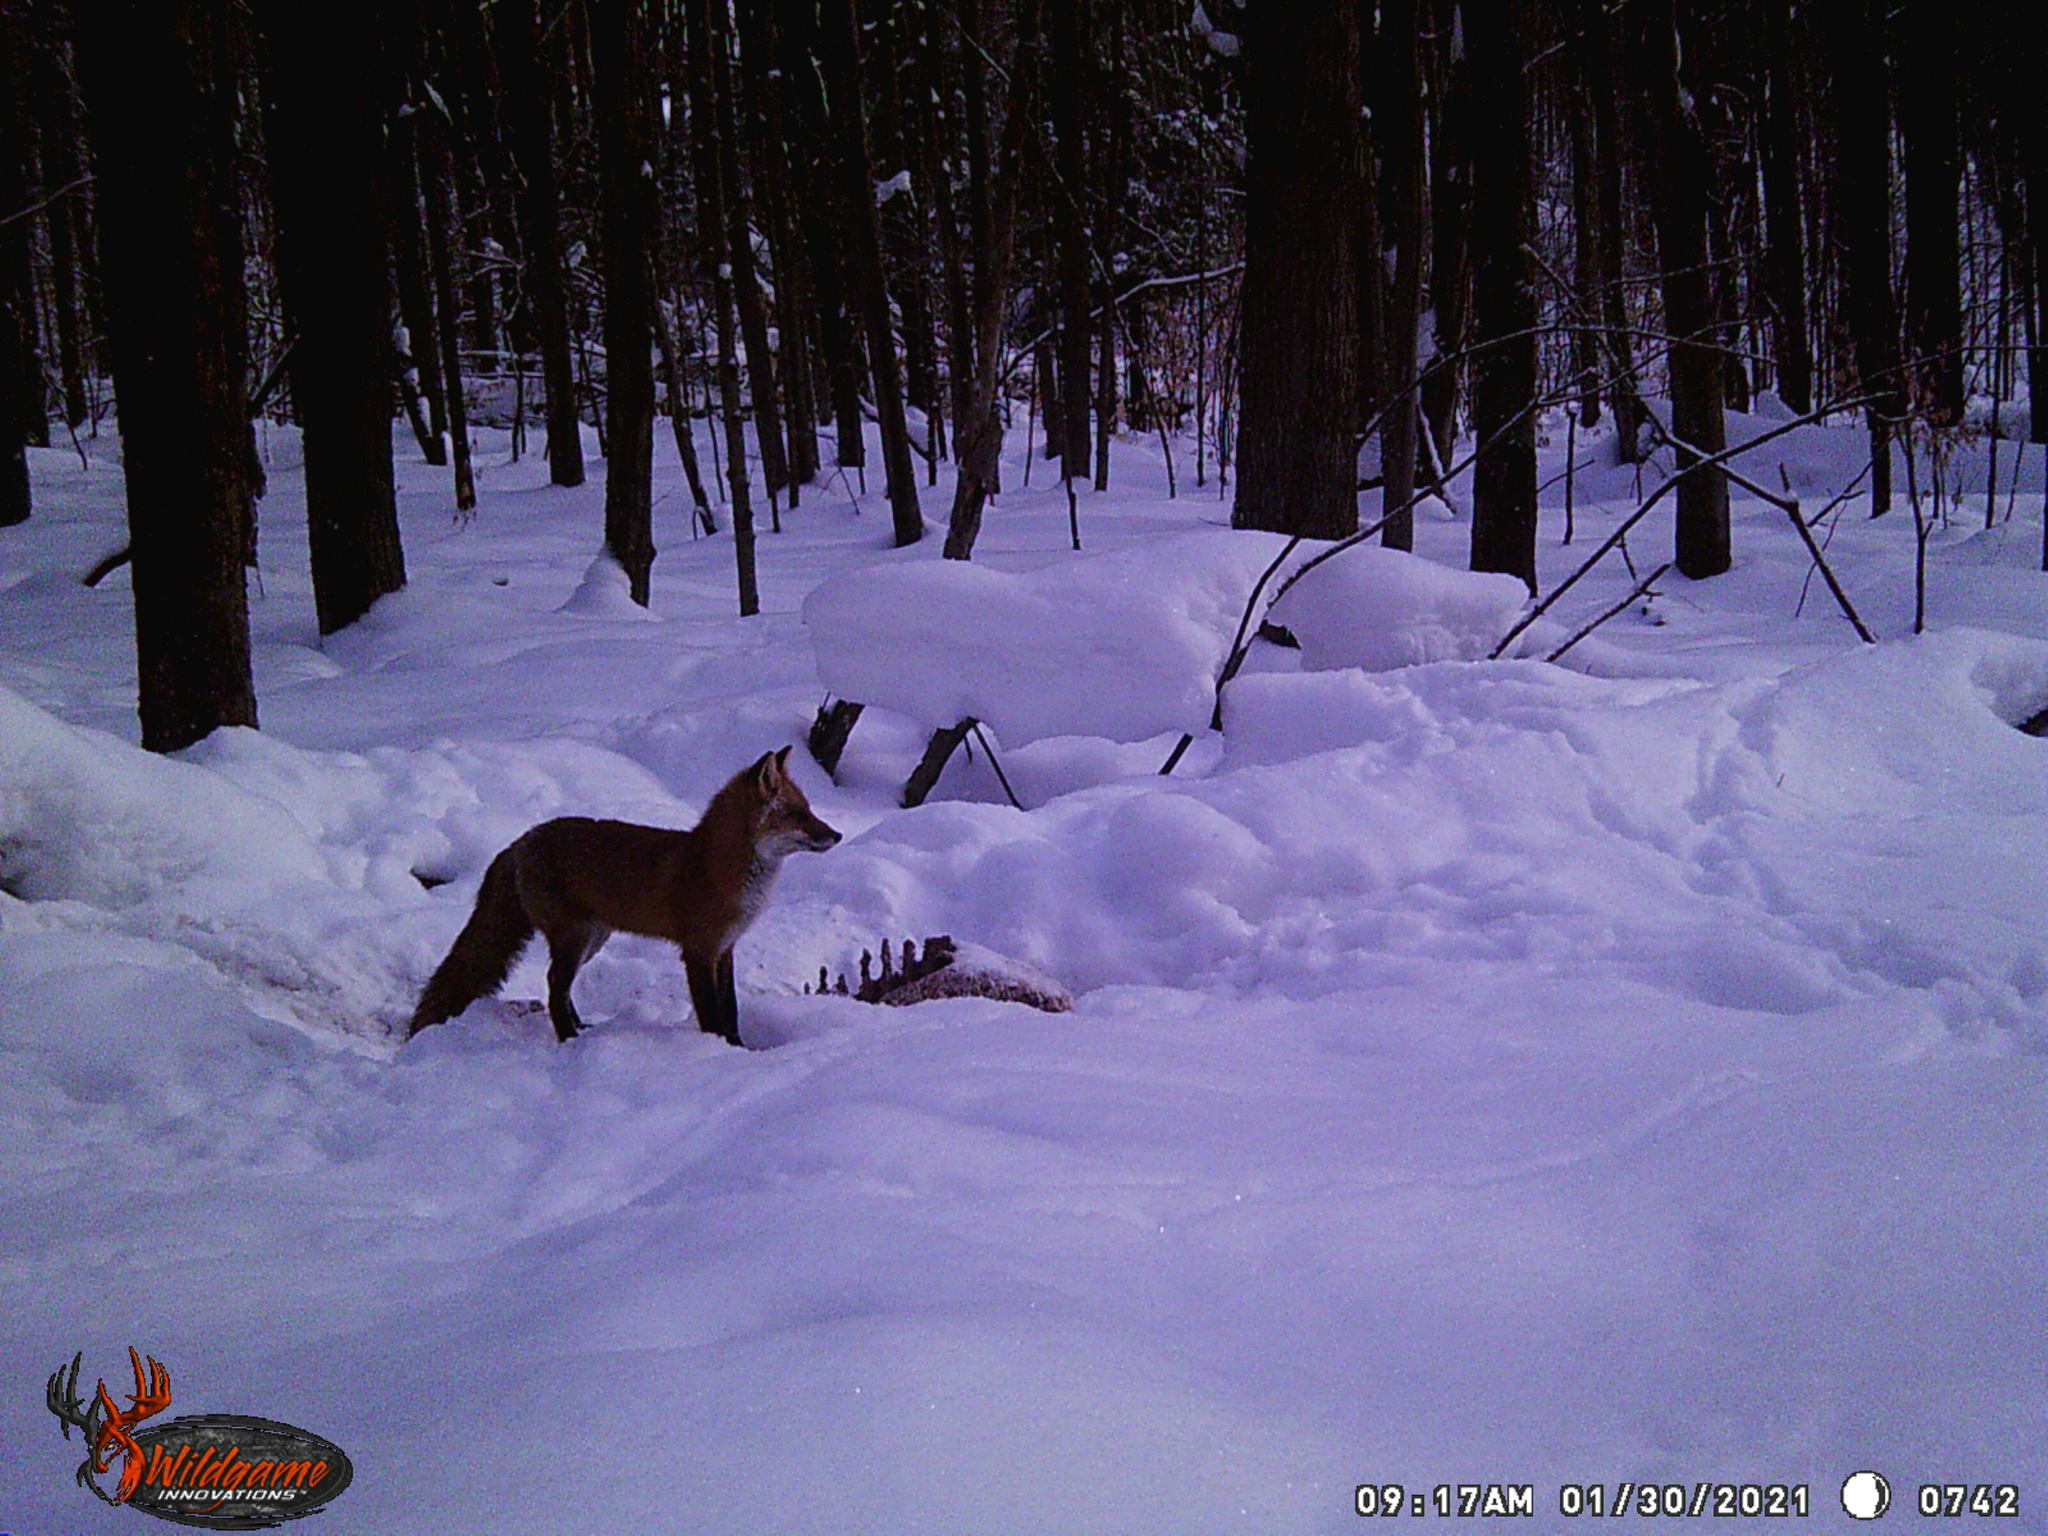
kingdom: Animalia
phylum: Chordata
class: Mammalia
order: Carnivora
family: Canidae
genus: Vulpes
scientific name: Vulpes vulpes
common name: Red fox
